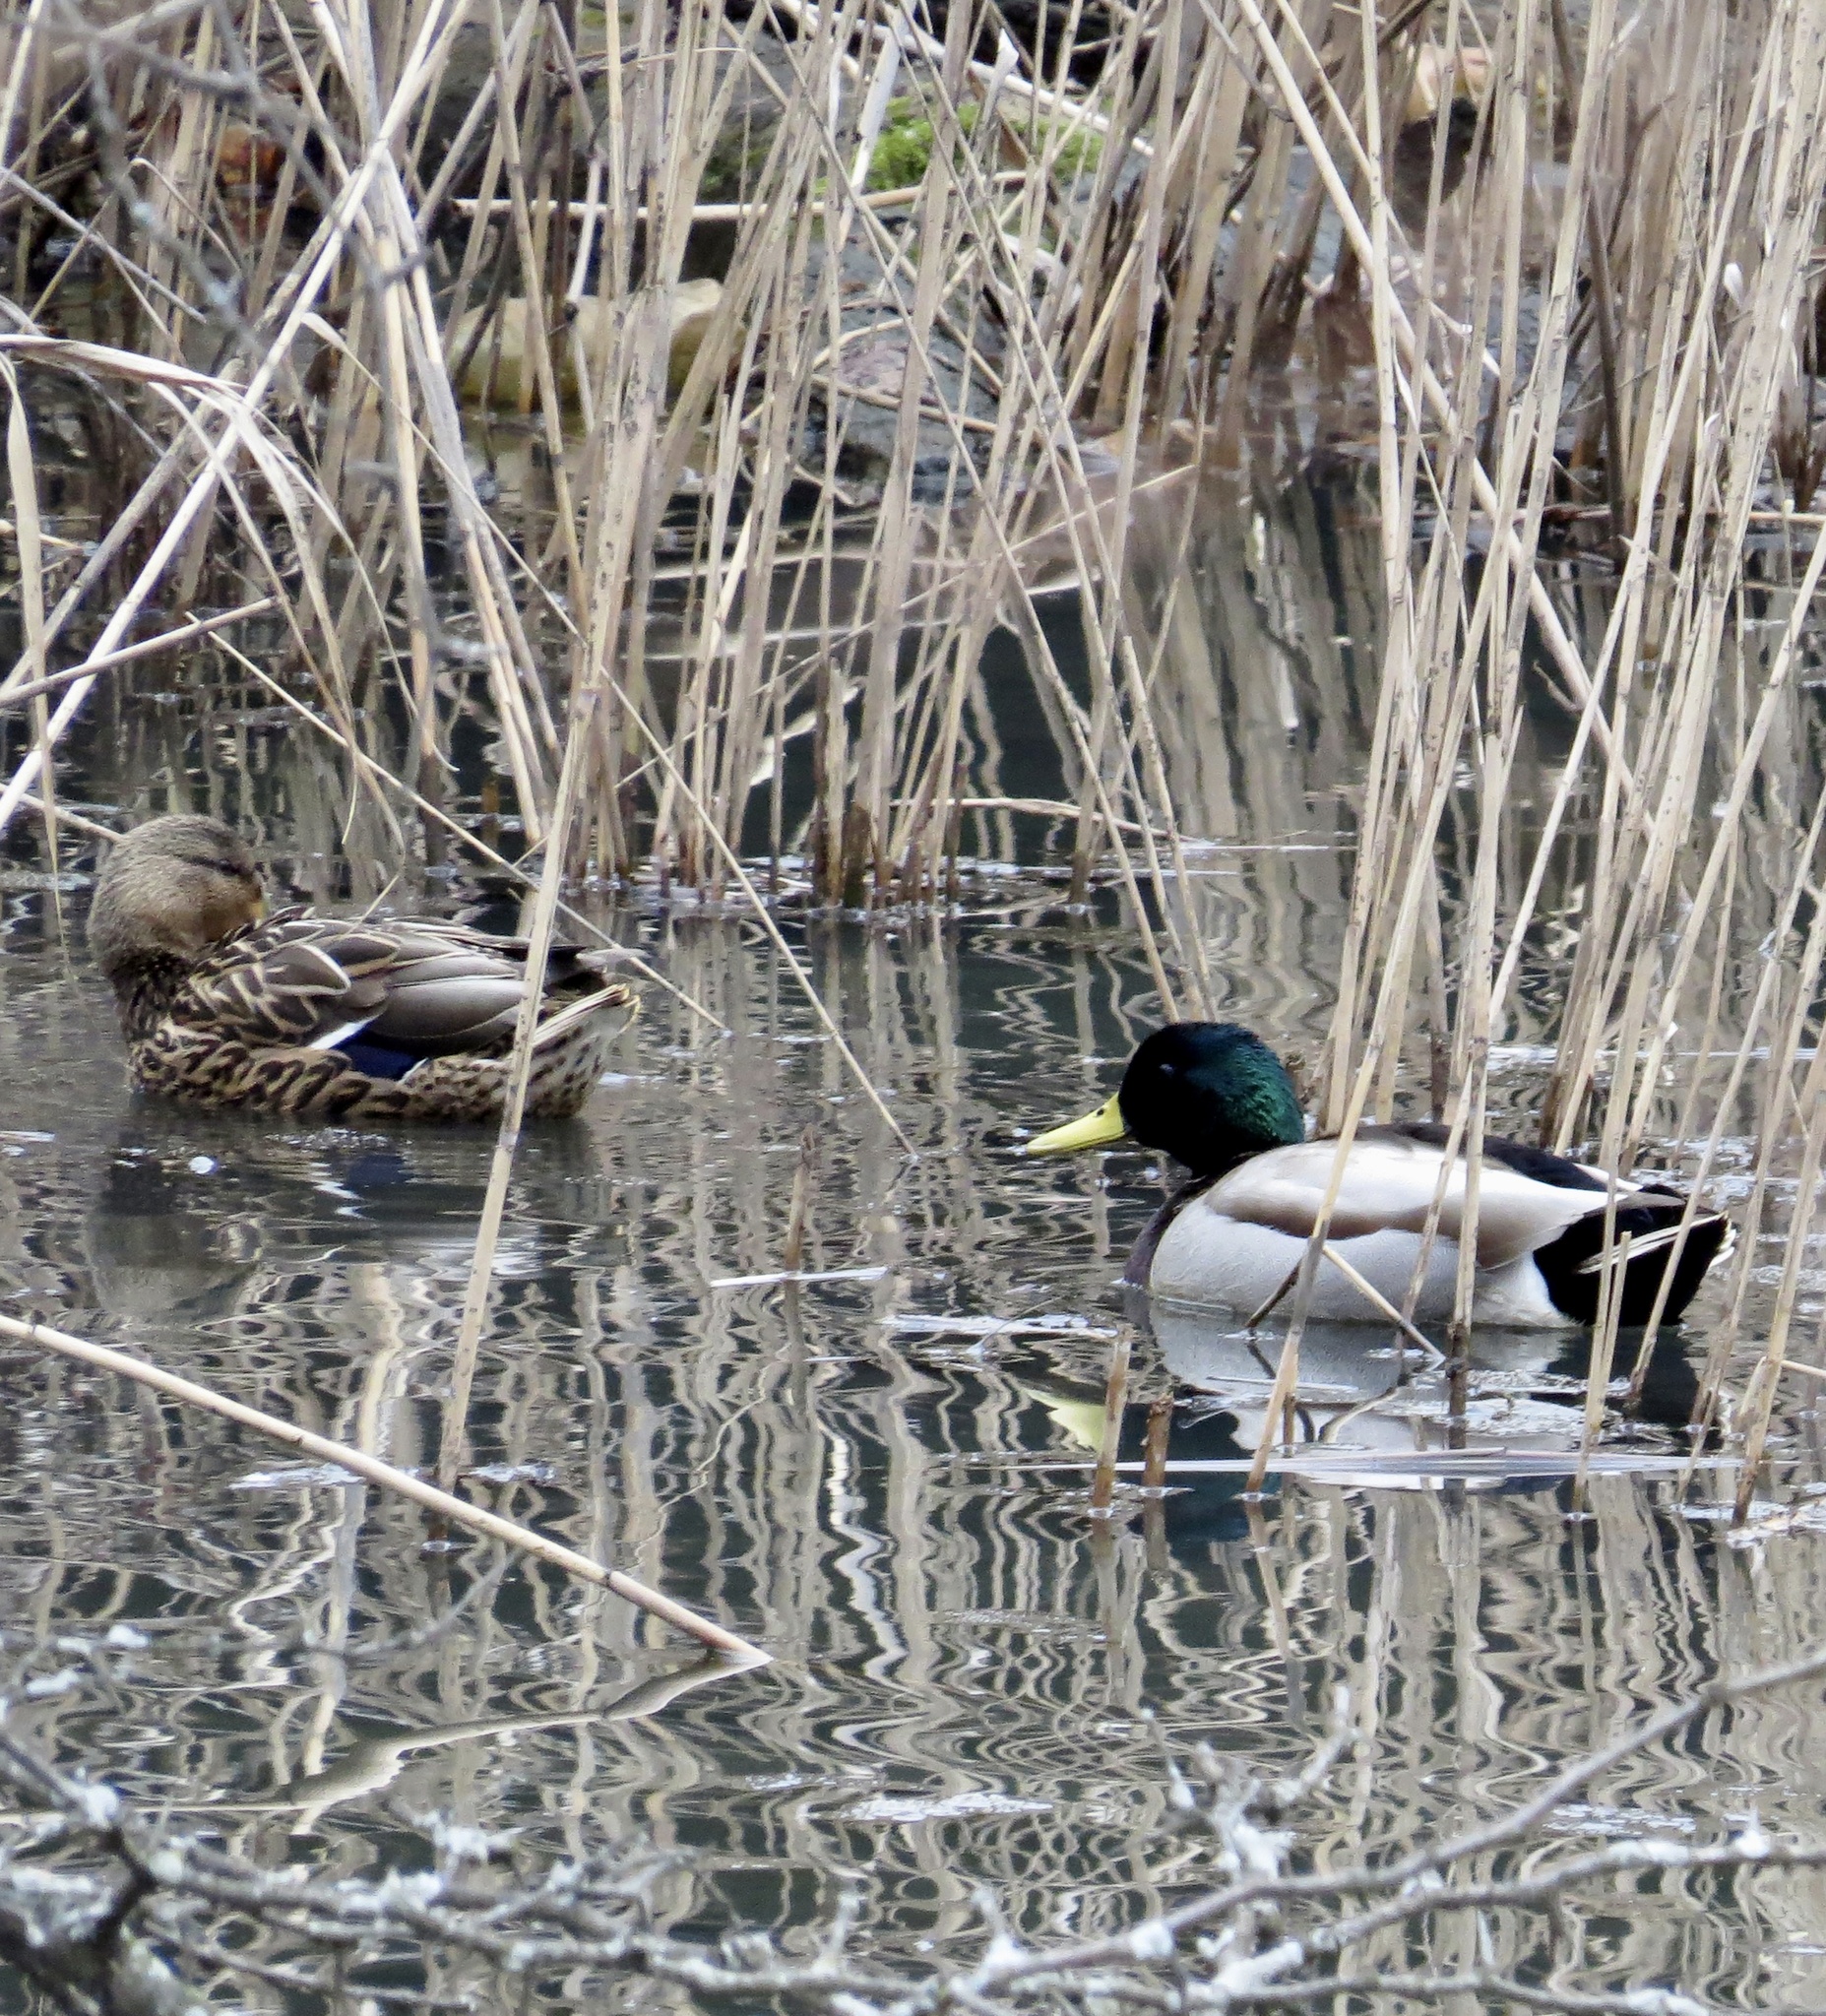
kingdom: Animalia
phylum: Chordata
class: Aves
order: Anseriformes
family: Anatidae
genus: Anas
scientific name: Anas platyrhynchos
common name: Mallard
